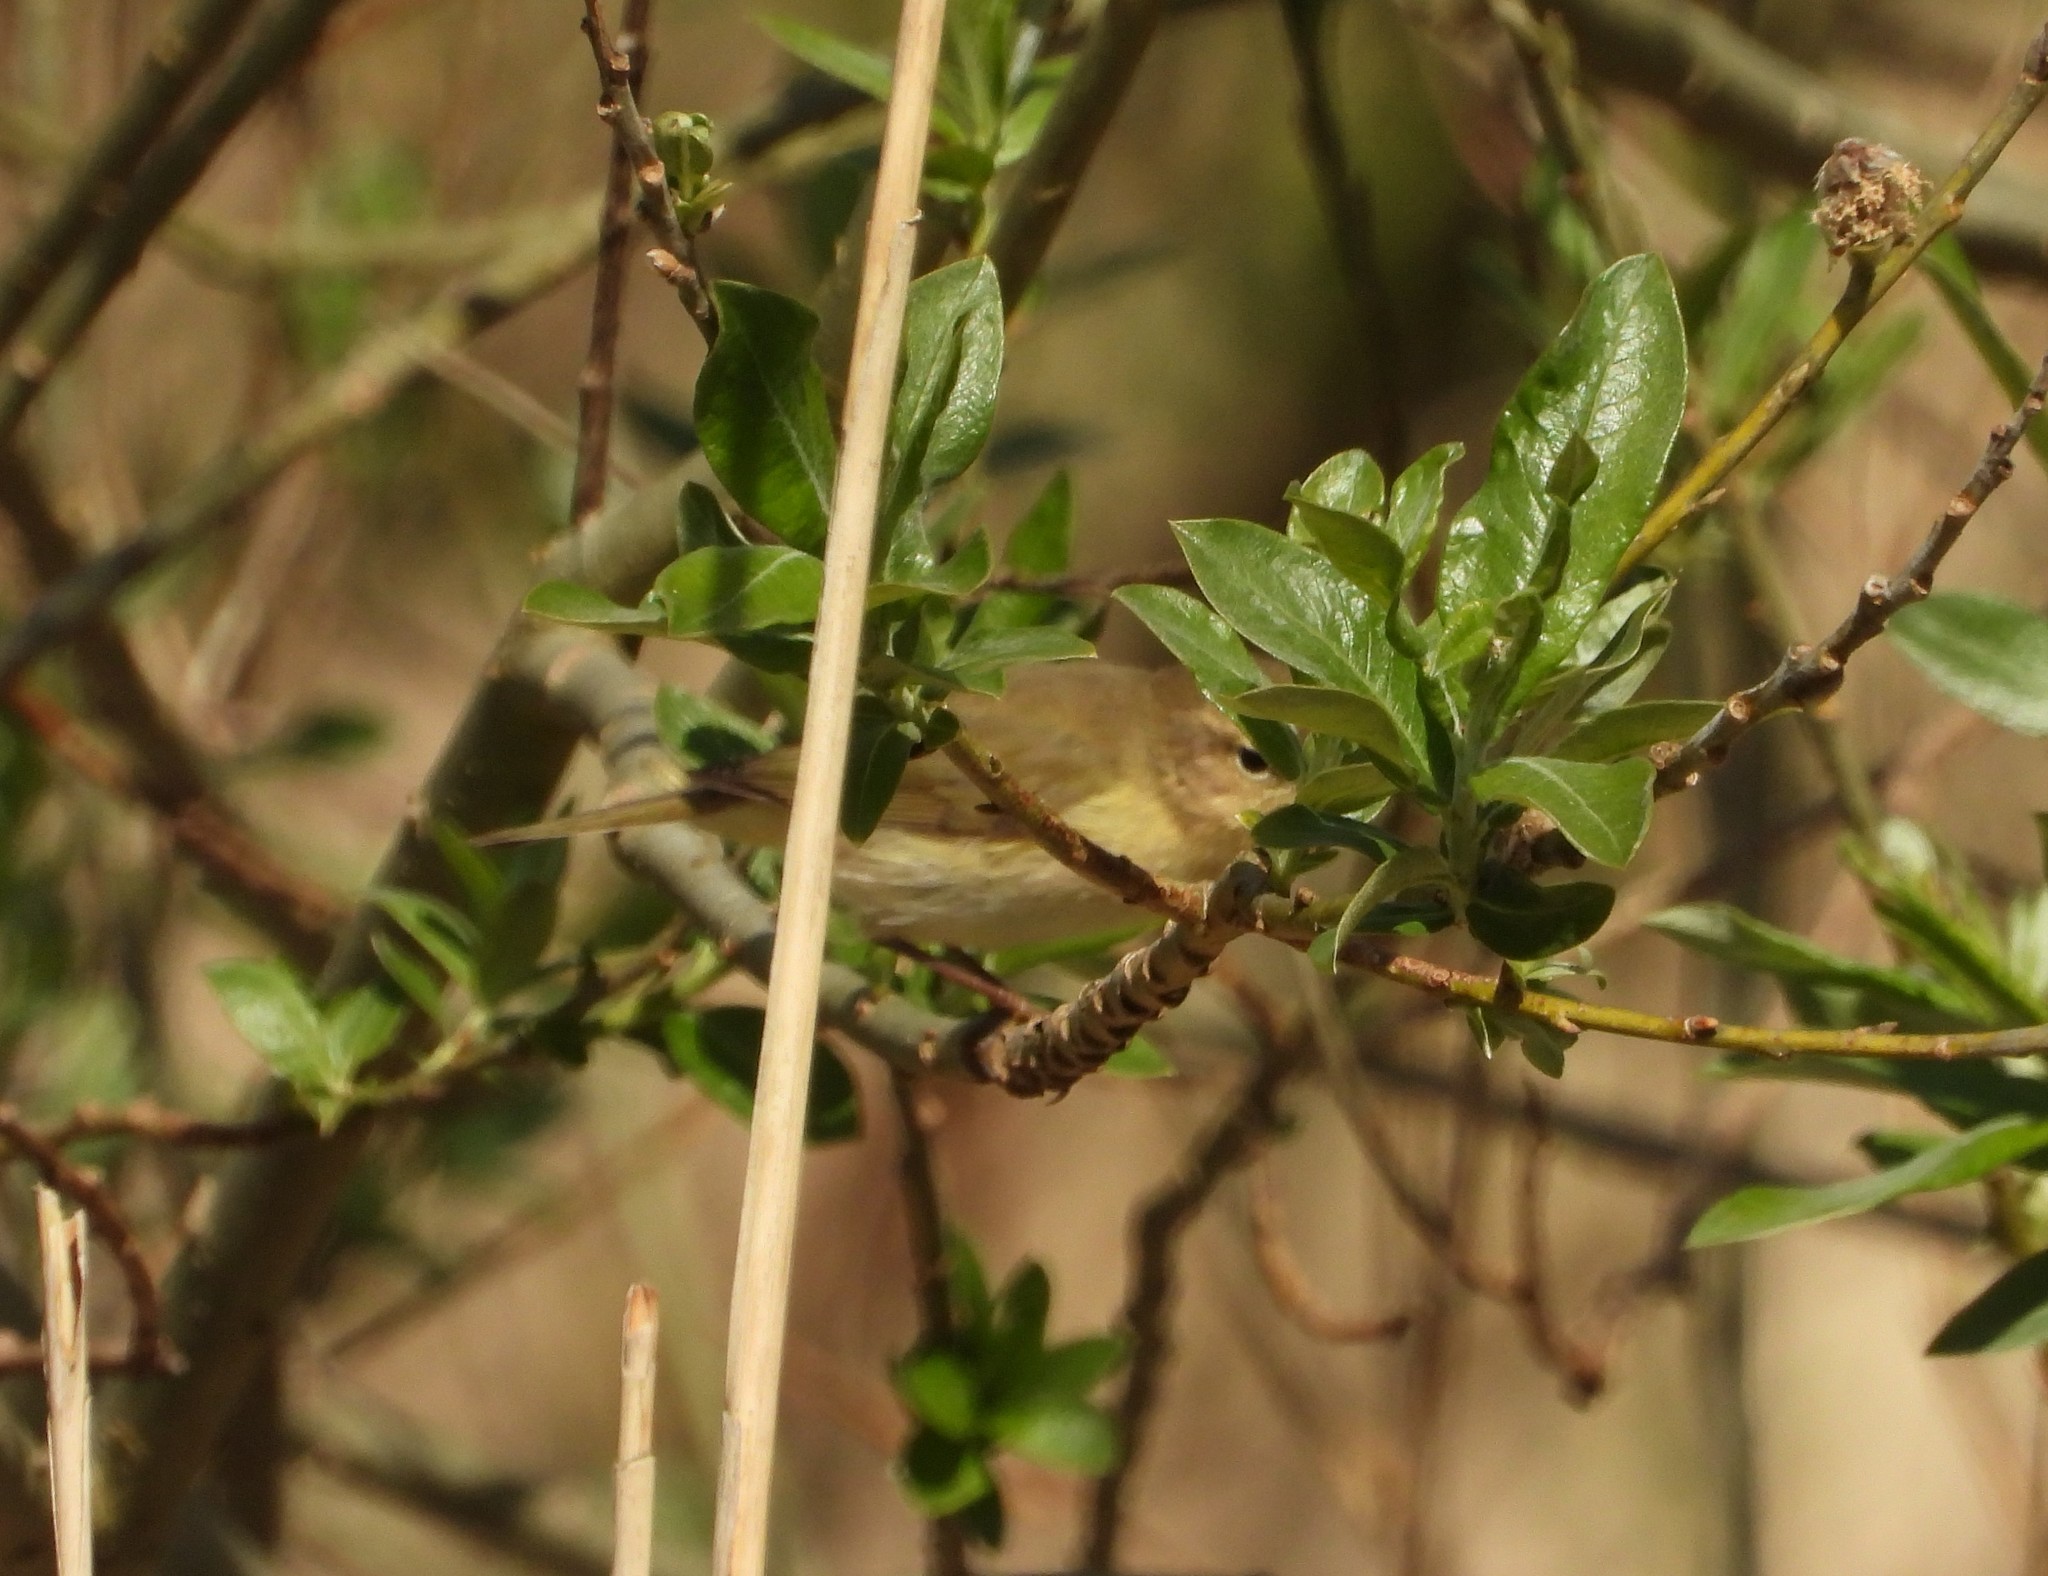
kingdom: Animalia
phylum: Chordata
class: Aves
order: Passeriformes
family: Phylloscopidae
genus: Phylloscopus
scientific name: Phylloscopus trochilus
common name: Willow warbler
